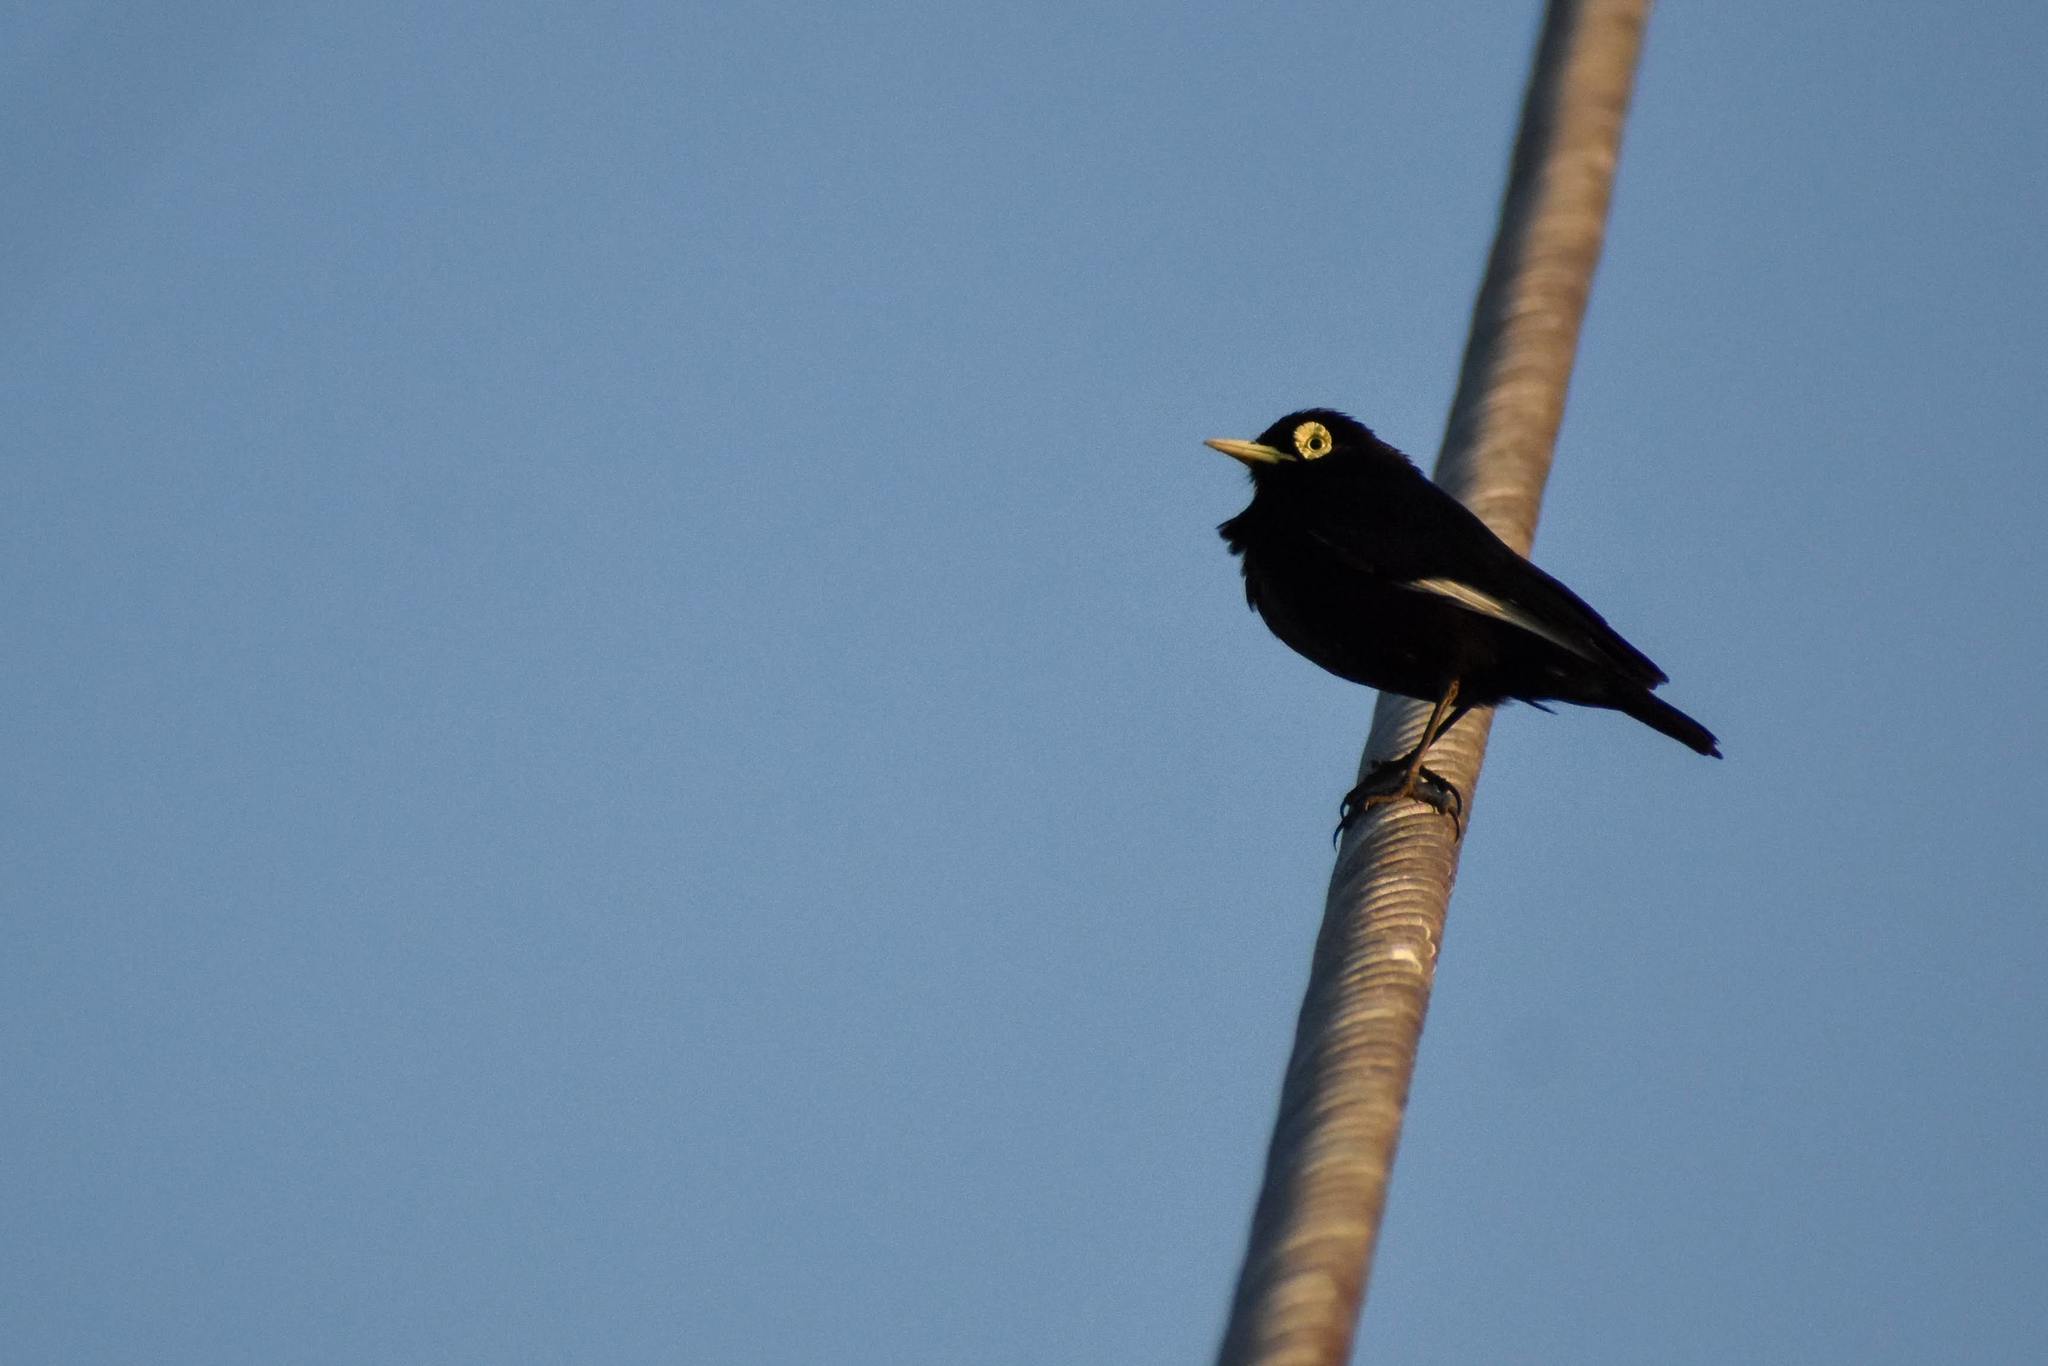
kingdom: Animalia
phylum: Chordata
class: Aves
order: Passeriformes
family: Tyrannidae
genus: Hymenops
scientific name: Hymenops perspicillatus
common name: Spectacled tyrant
